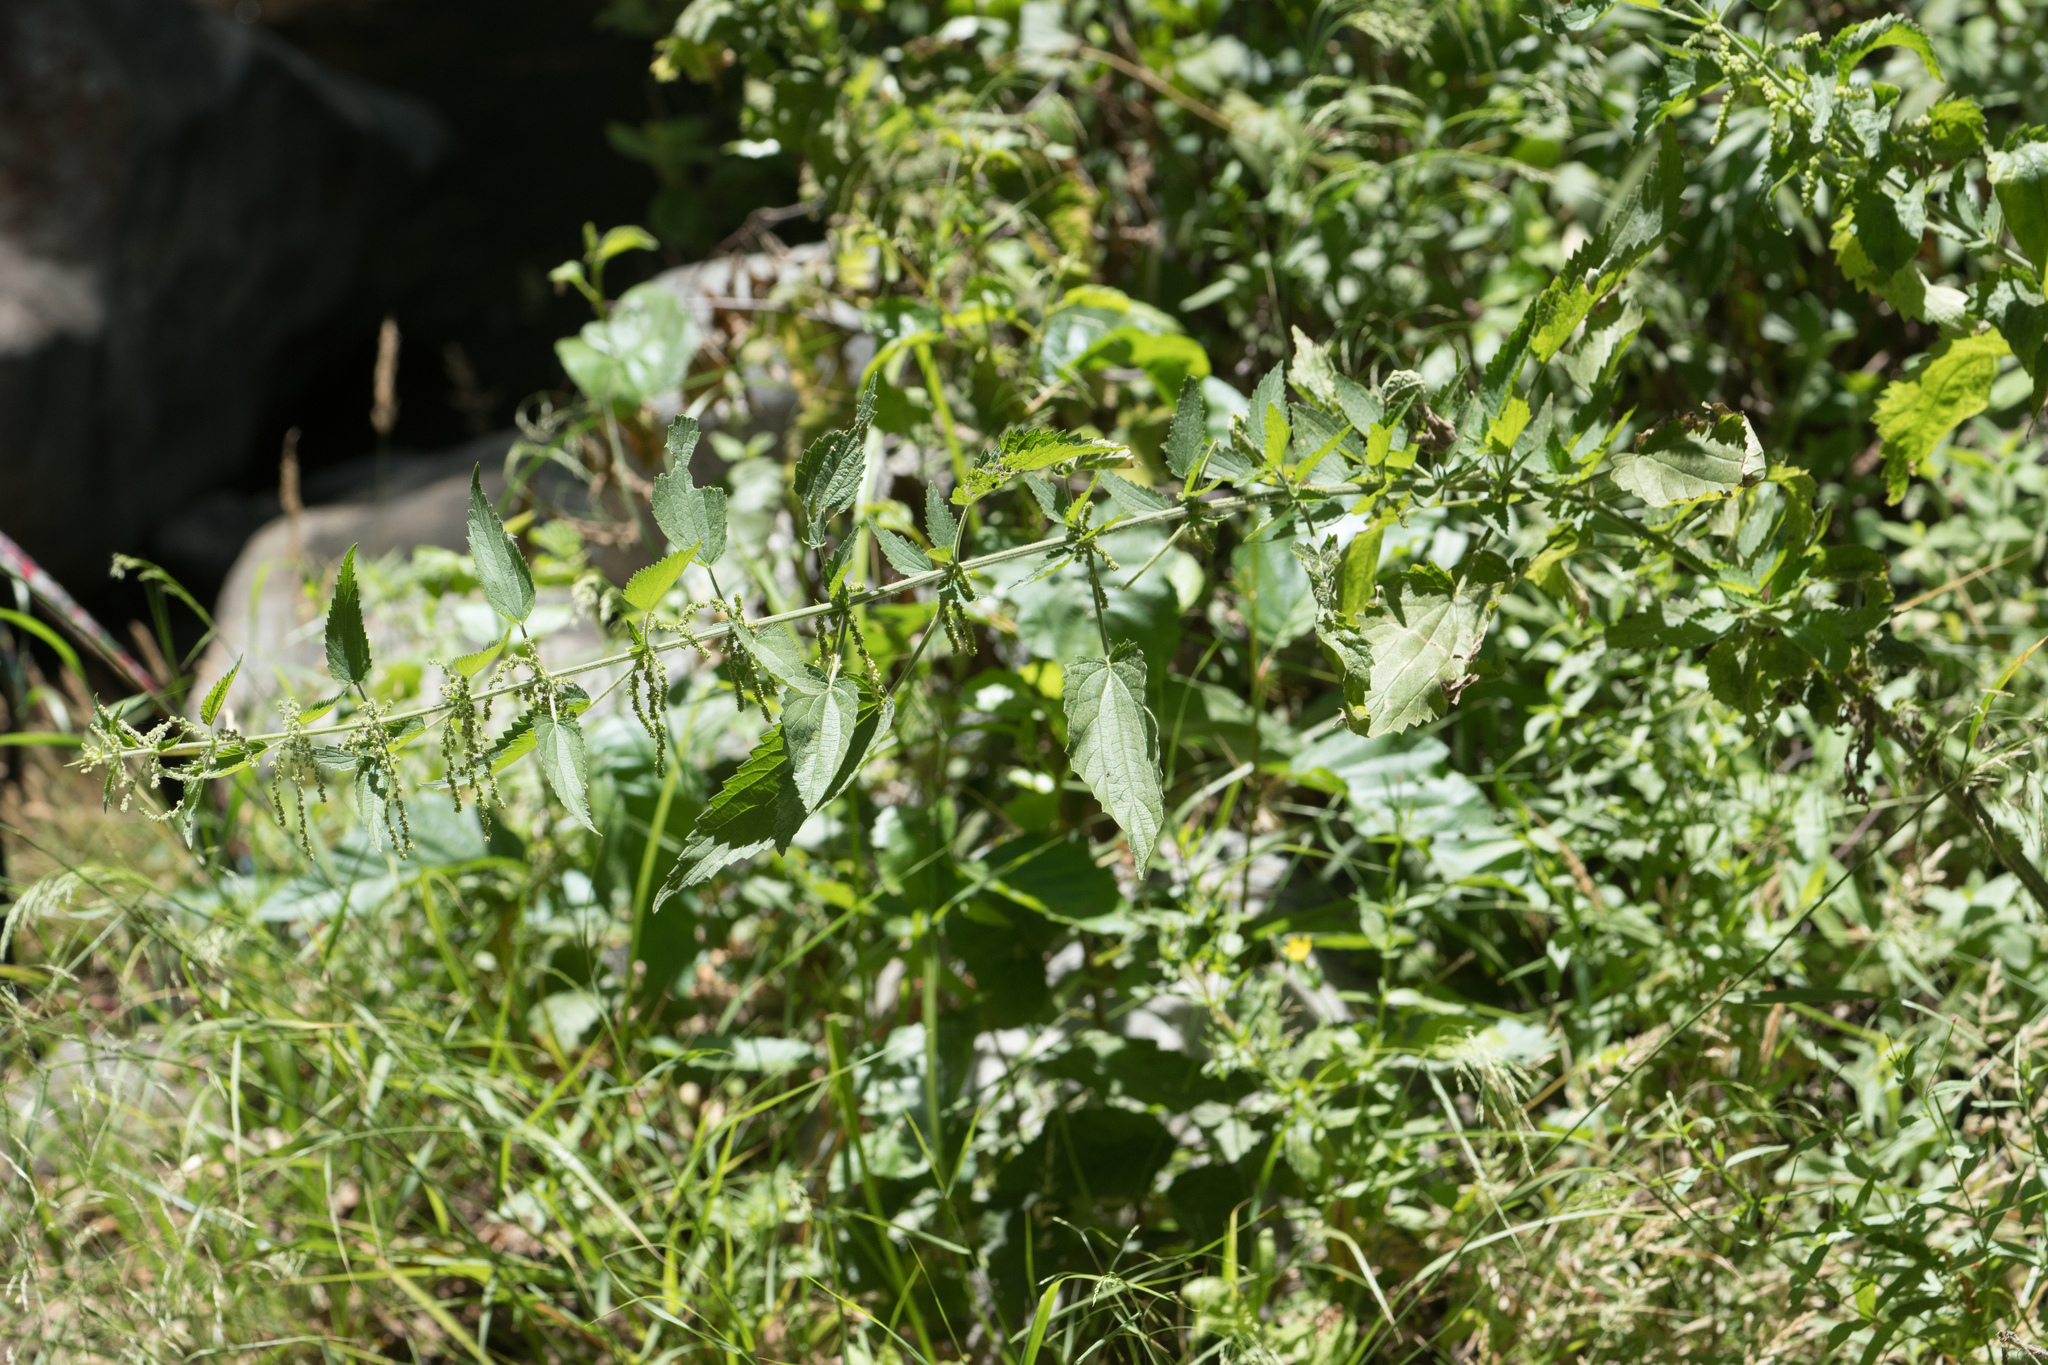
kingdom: Plantae
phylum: Tracheophyta
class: Magnoliopsida
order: Rosales
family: Urticaceae
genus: Urtica
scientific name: Urtica dioica
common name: Common nettle
